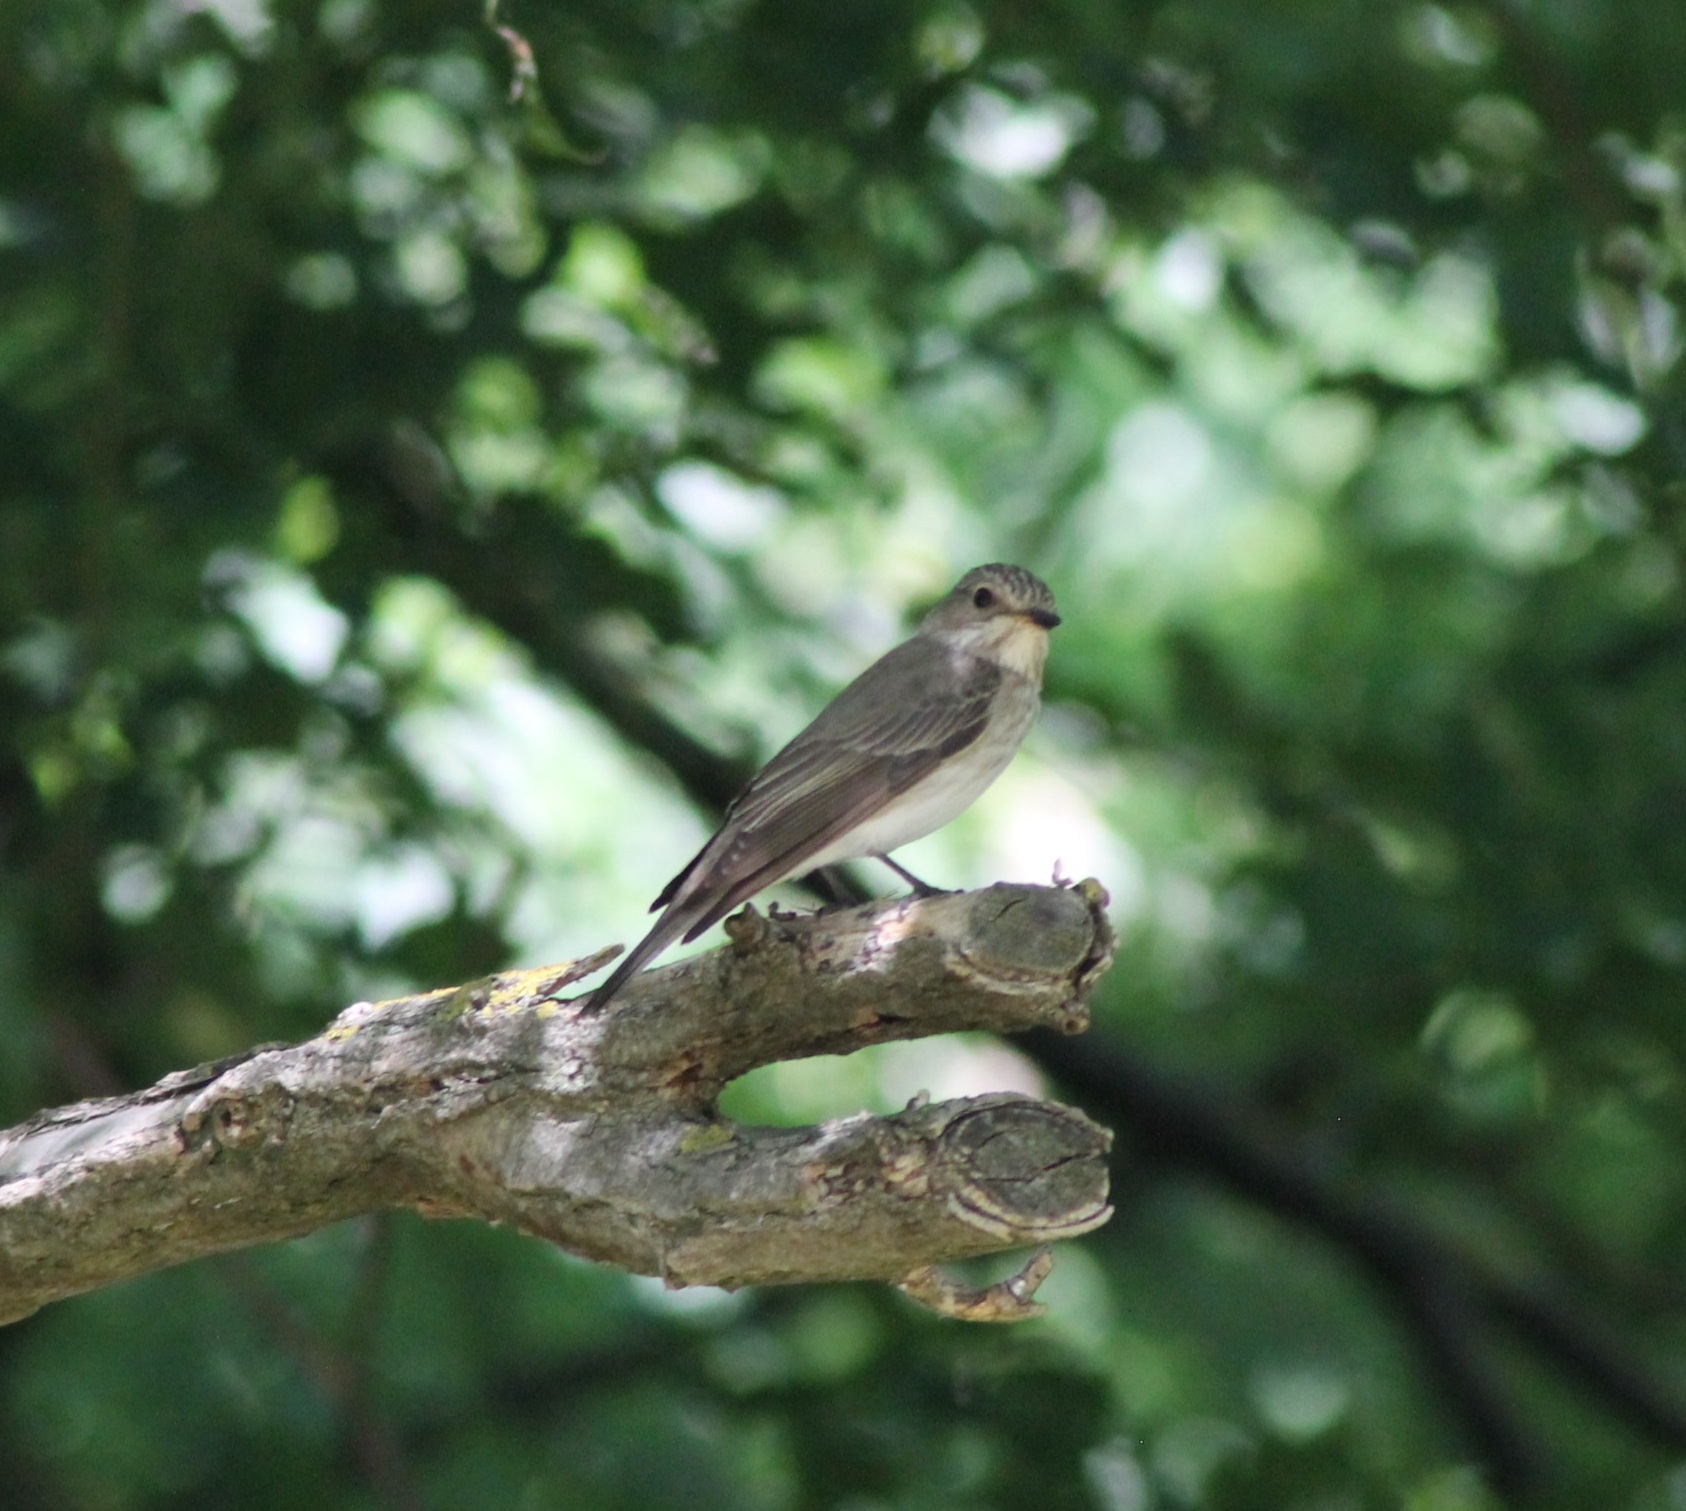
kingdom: Animalia
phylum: Chordata
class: Aves
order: Passeriformes
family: Muscicapidae
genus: Muscicapa
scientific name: Muscicapa striata
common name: Spotted flycatcher
